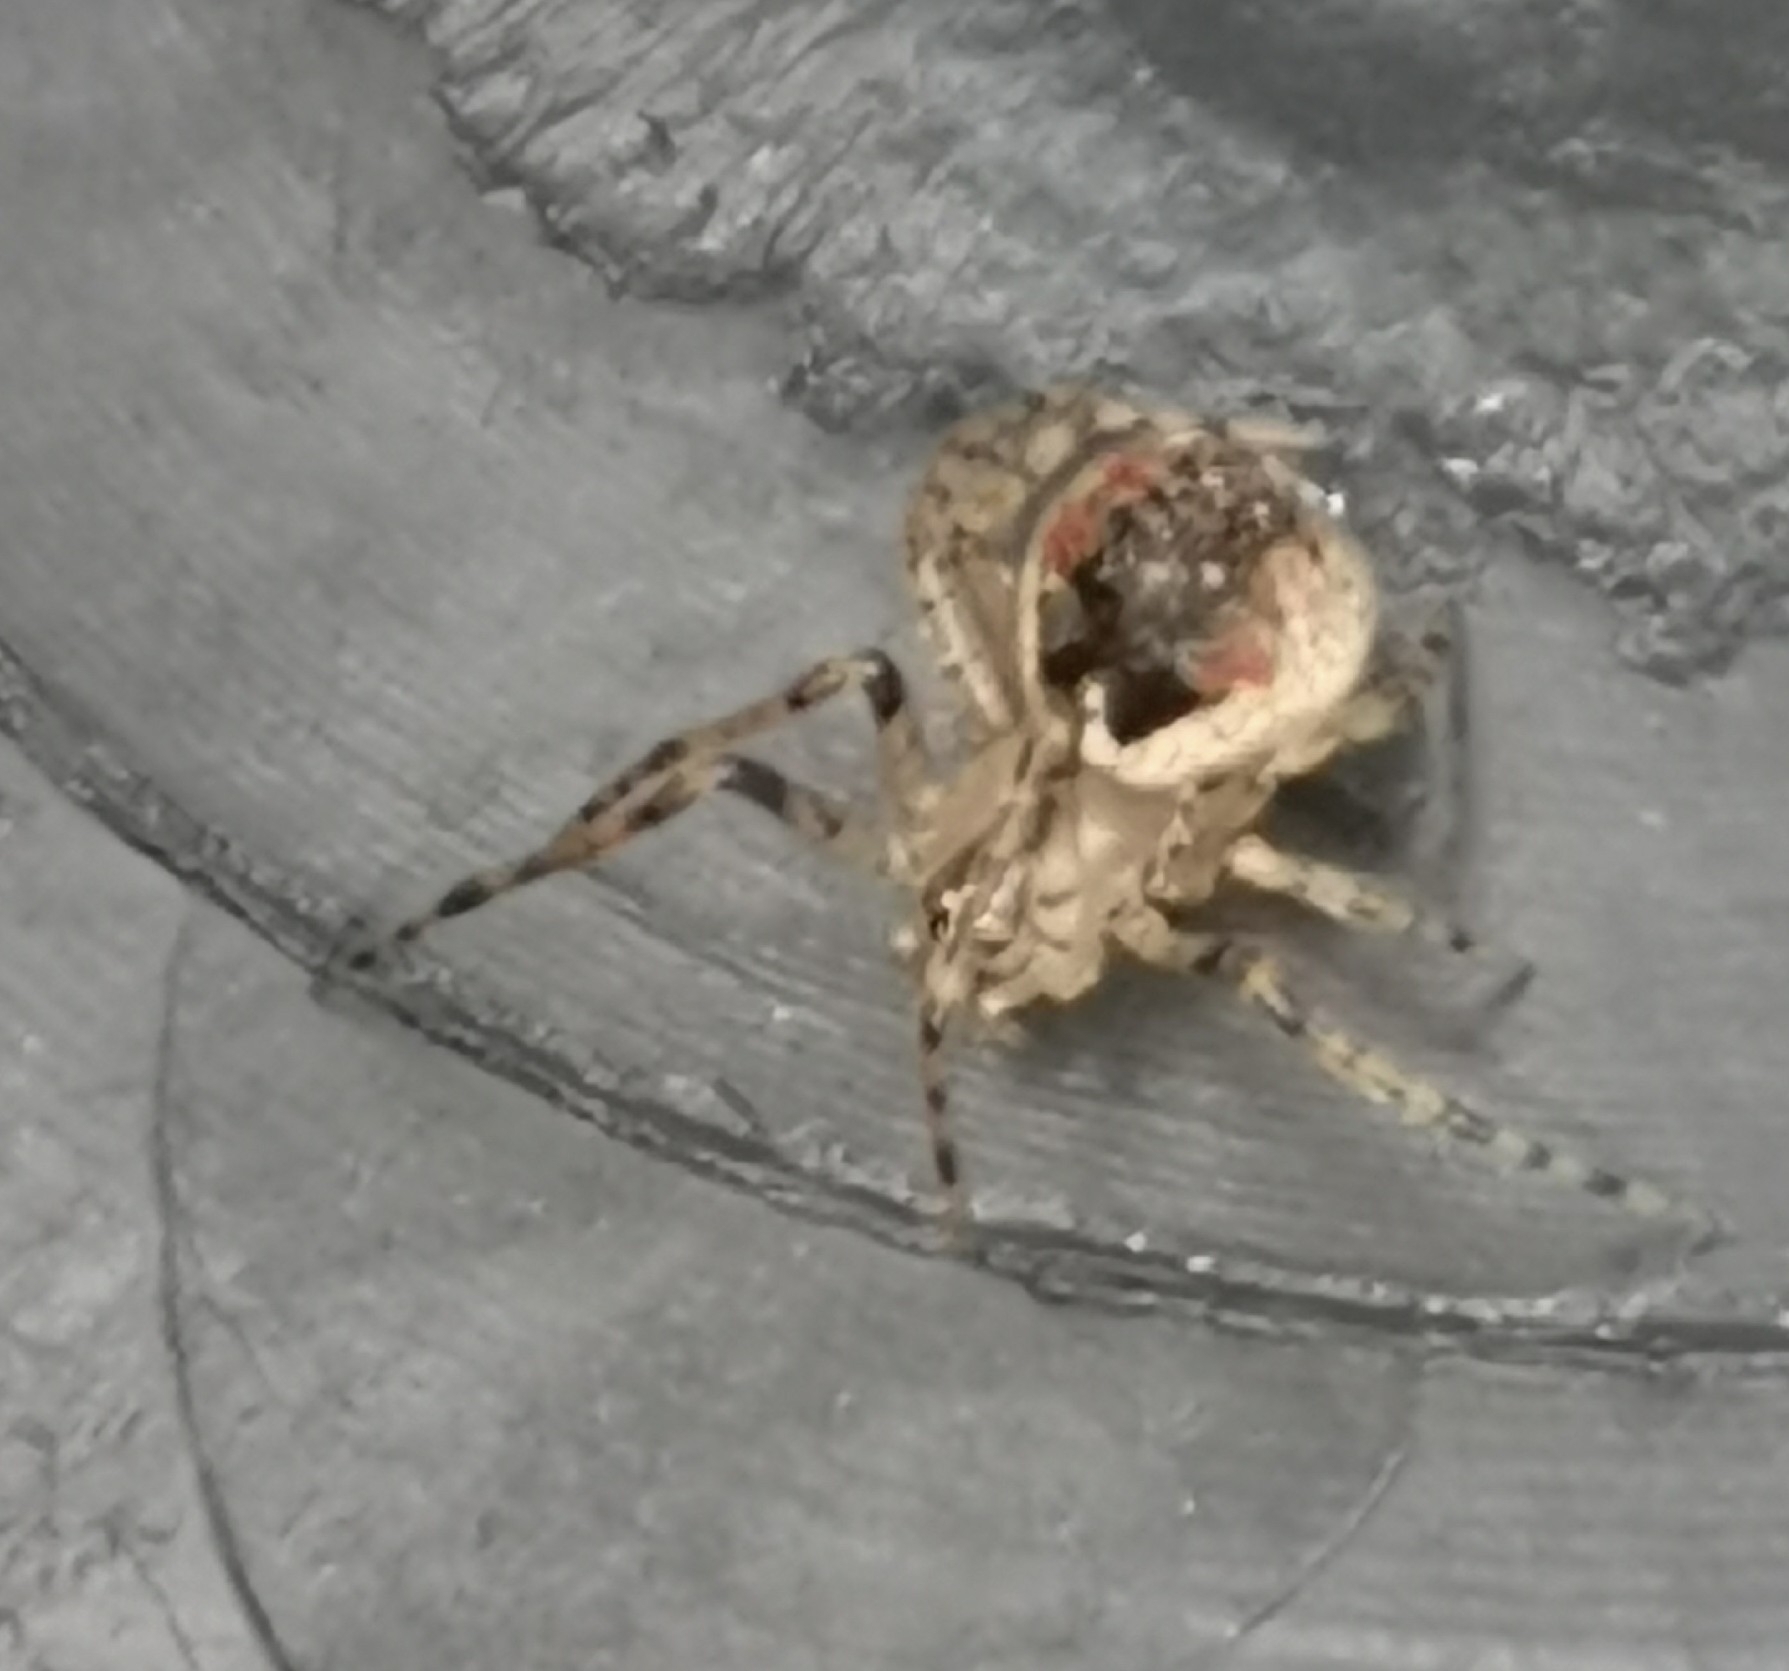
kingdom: Animalia
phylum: Arthropoda
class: Arachnida
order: Araneae
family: Theridiidae
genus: Platnickina
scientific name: Platnickina tincta
